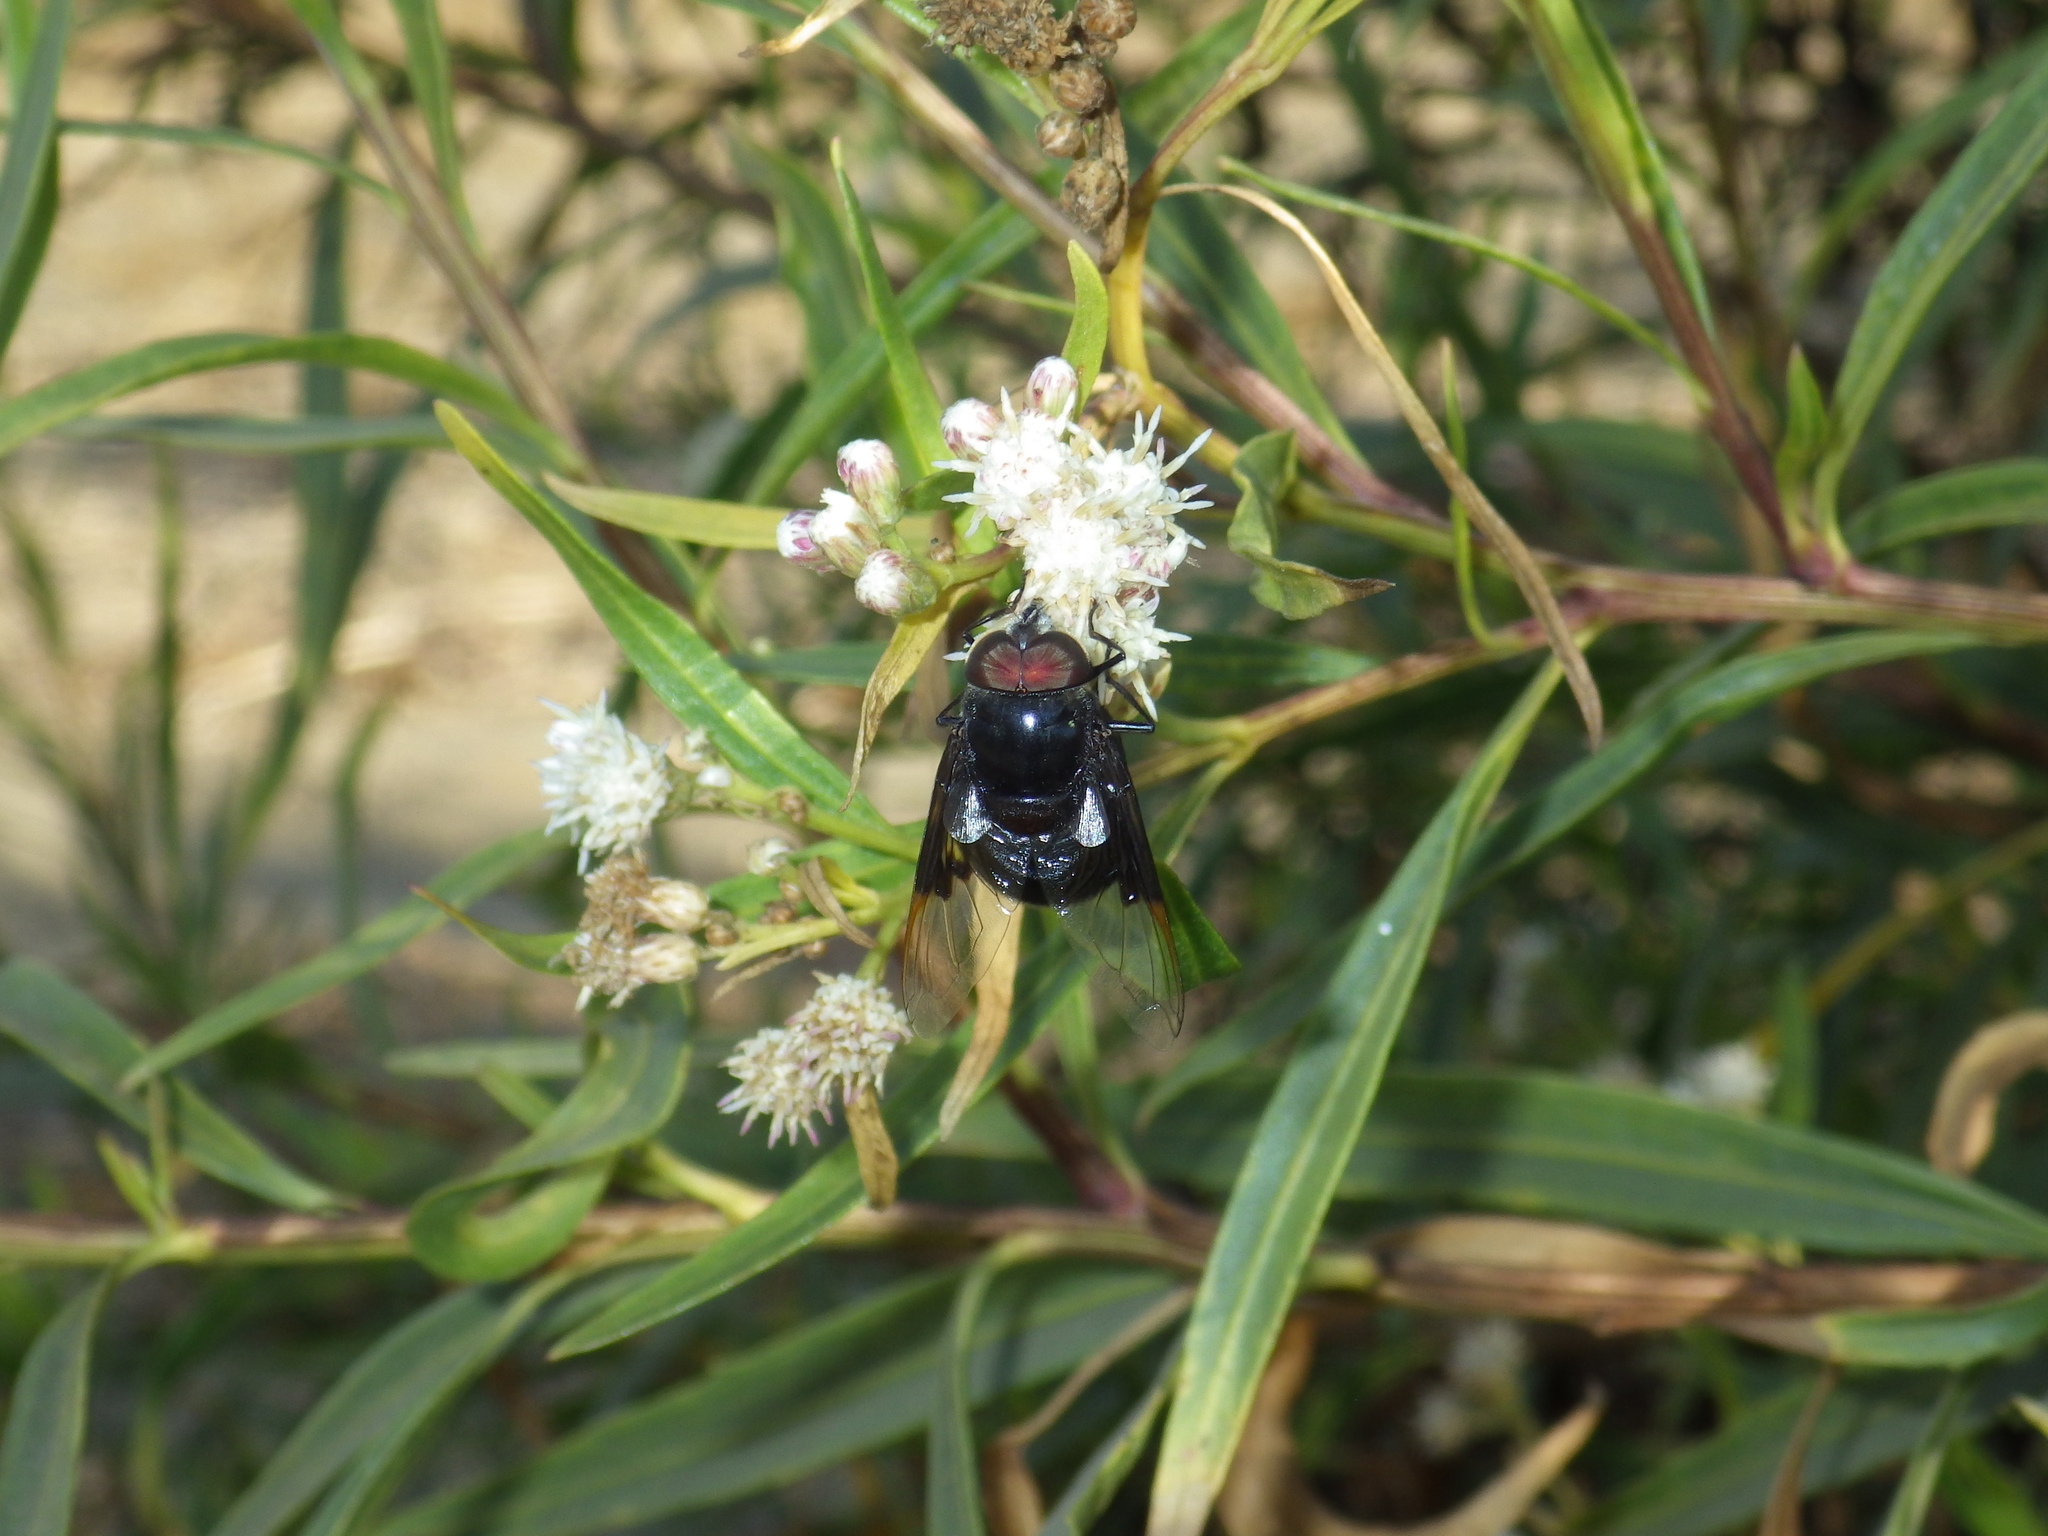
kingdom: Animalia
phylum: Arthropoda
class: Insecta
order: Diptera
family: Syrphidae
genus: Copestylum
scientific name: Copestylum mexicanum
